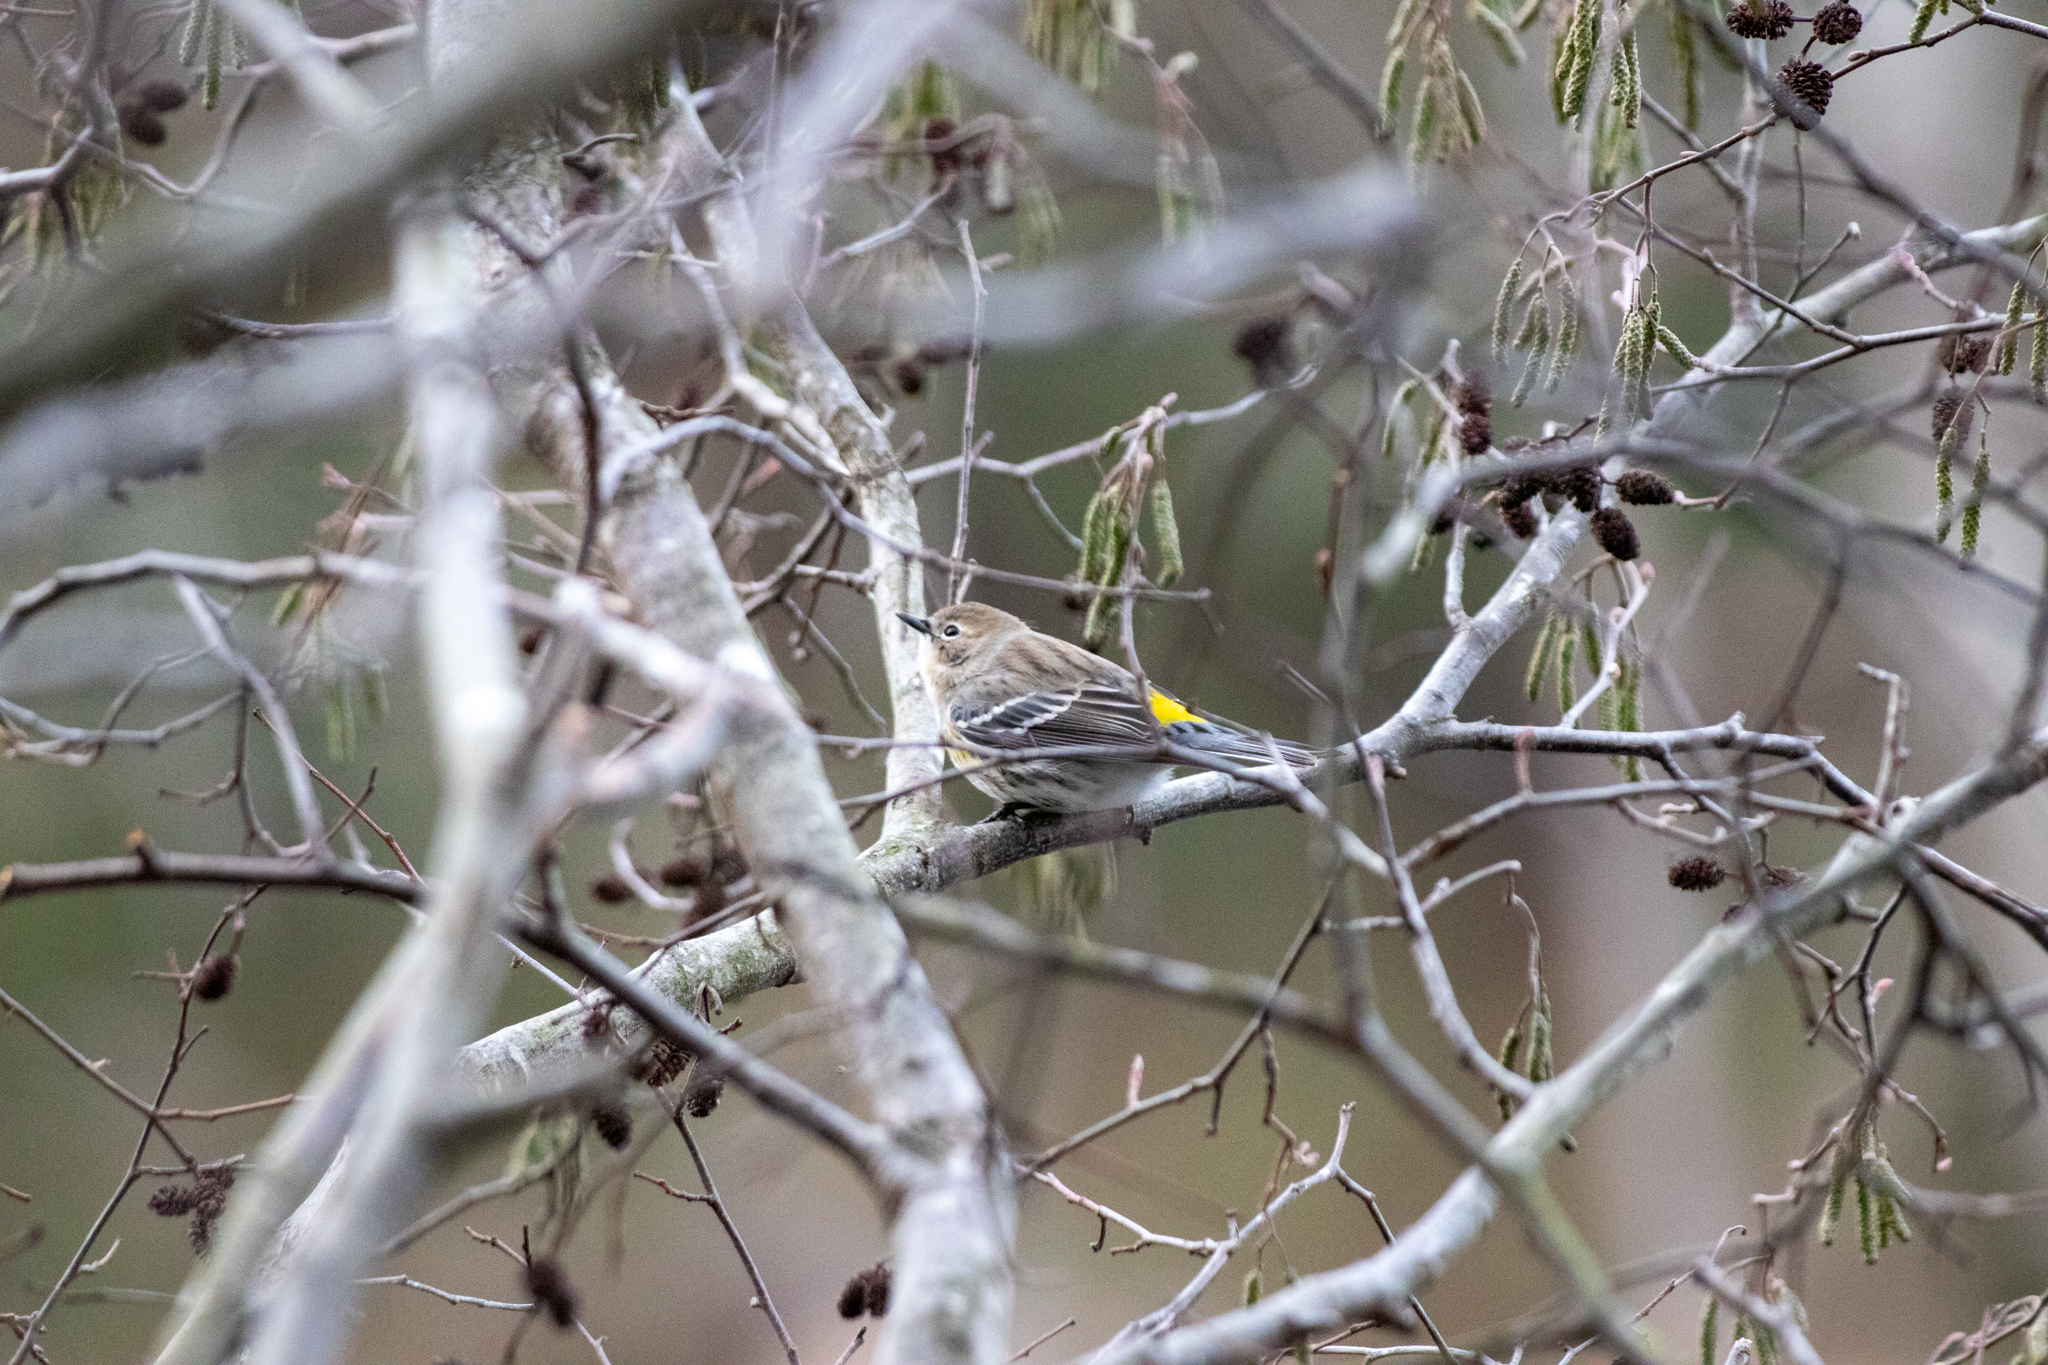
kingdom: Animalia
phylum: Chordata
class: Aves
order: Passeriformes
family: Parulidae
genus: Setophaga
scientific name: Setophaga coronata
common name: Myrtle warbler
